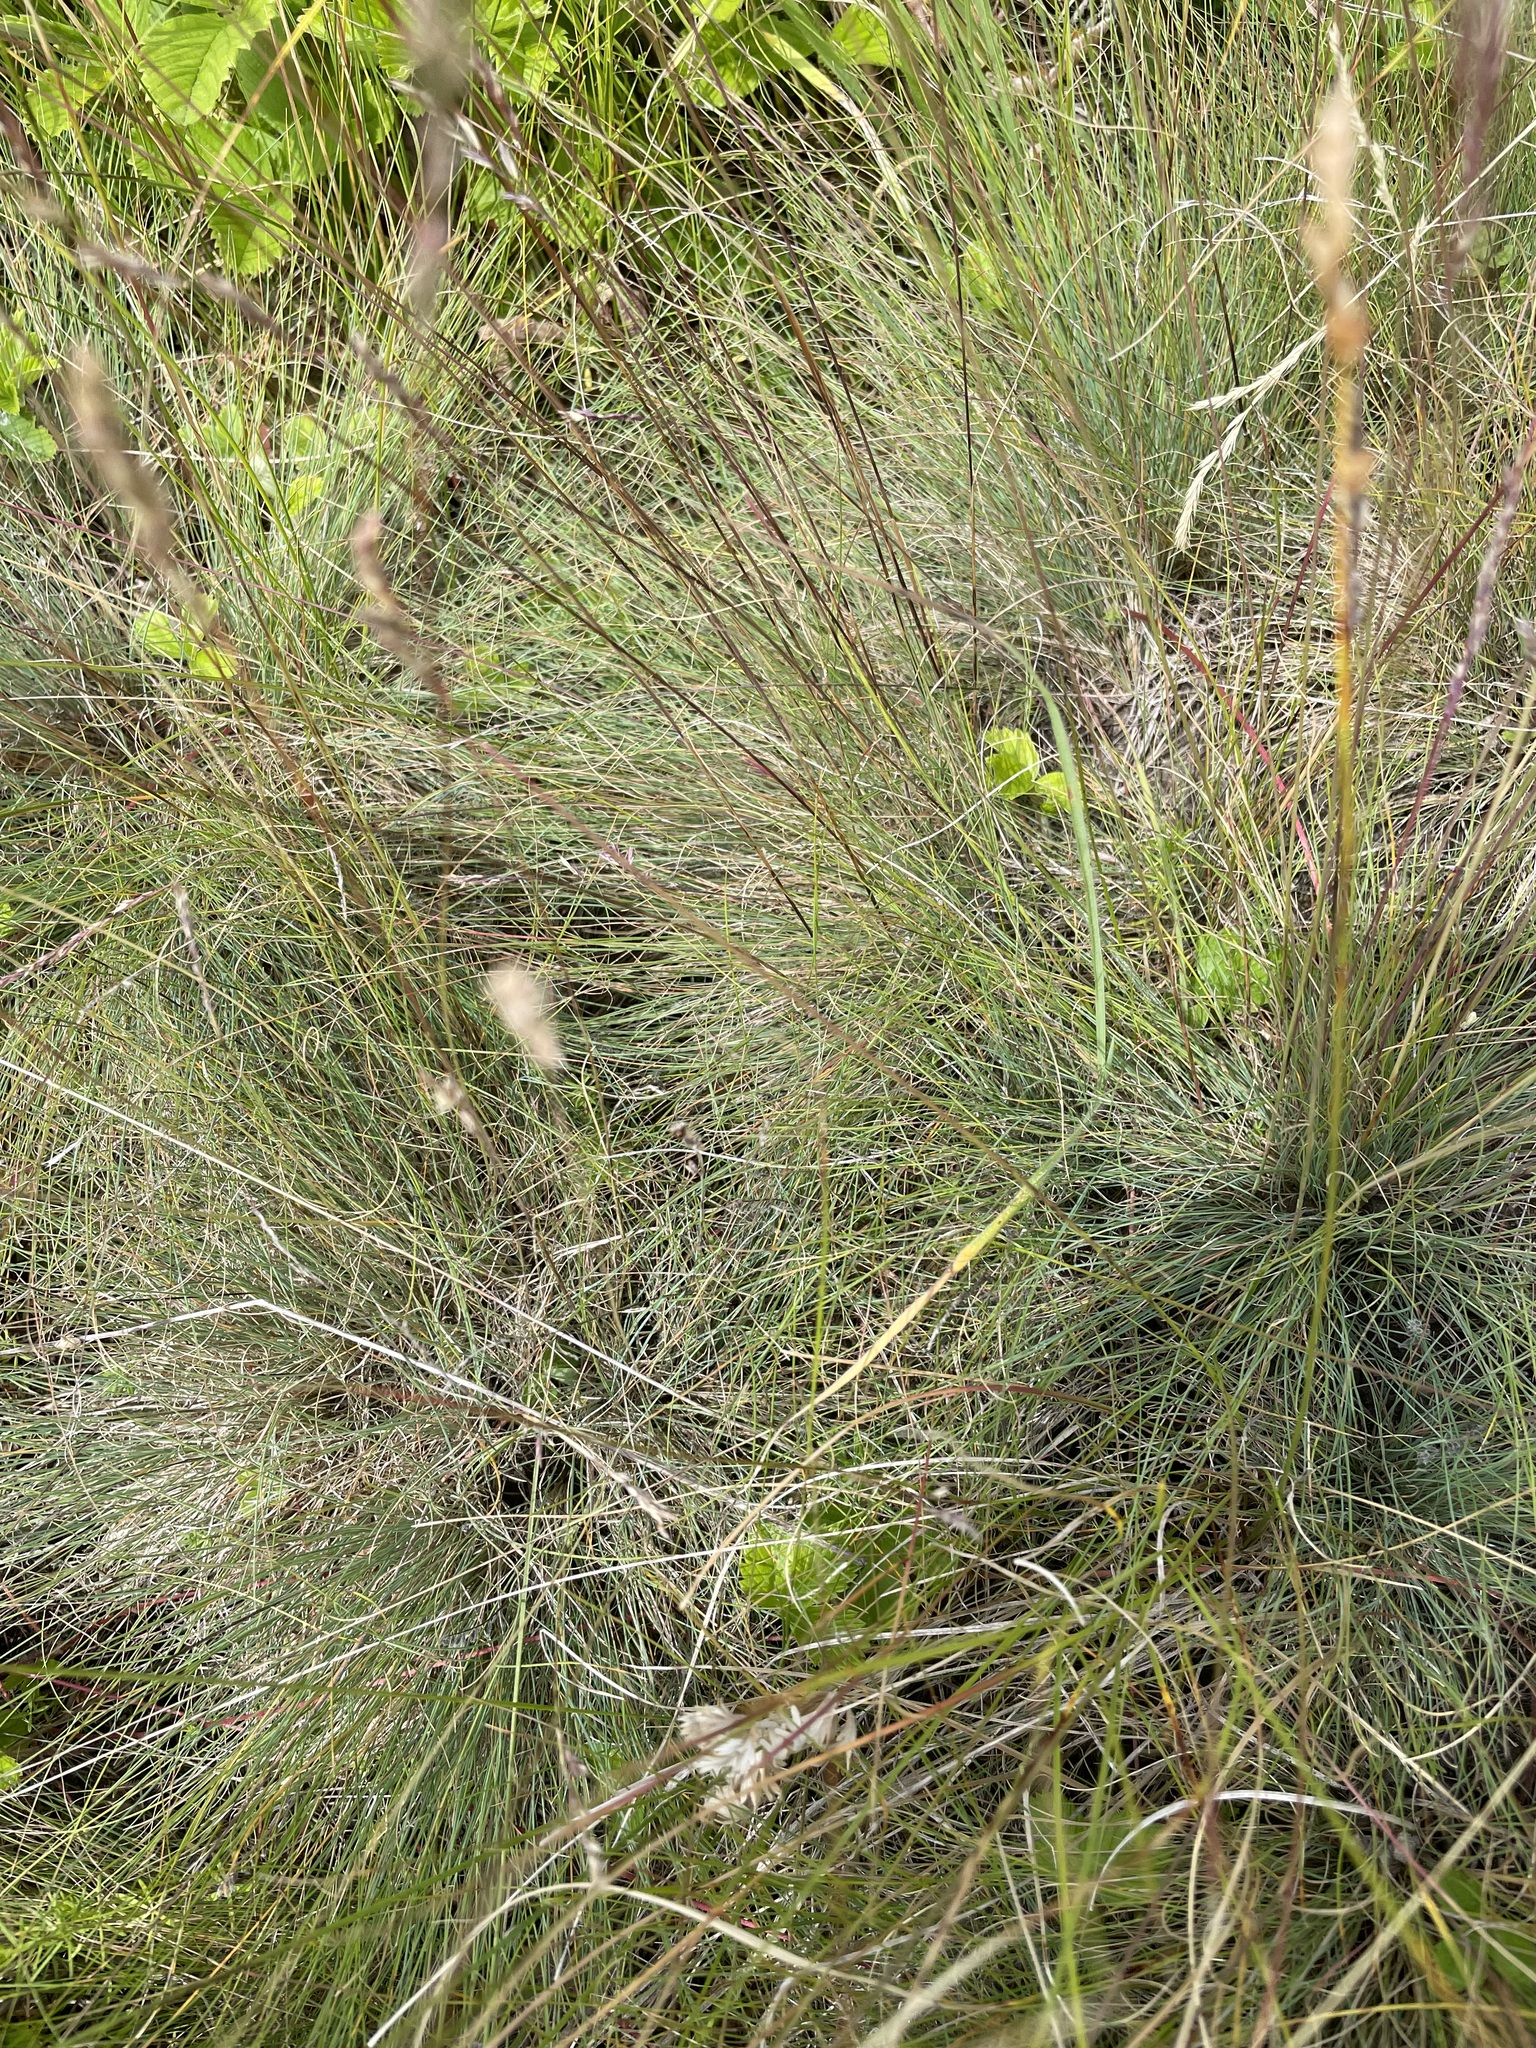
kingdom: Plantae
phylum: Tracheophyta
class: Liliopsida
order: Poales
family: Poaceae
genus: Festuca
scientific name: Festuca valesiaca
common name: Volga fescue
